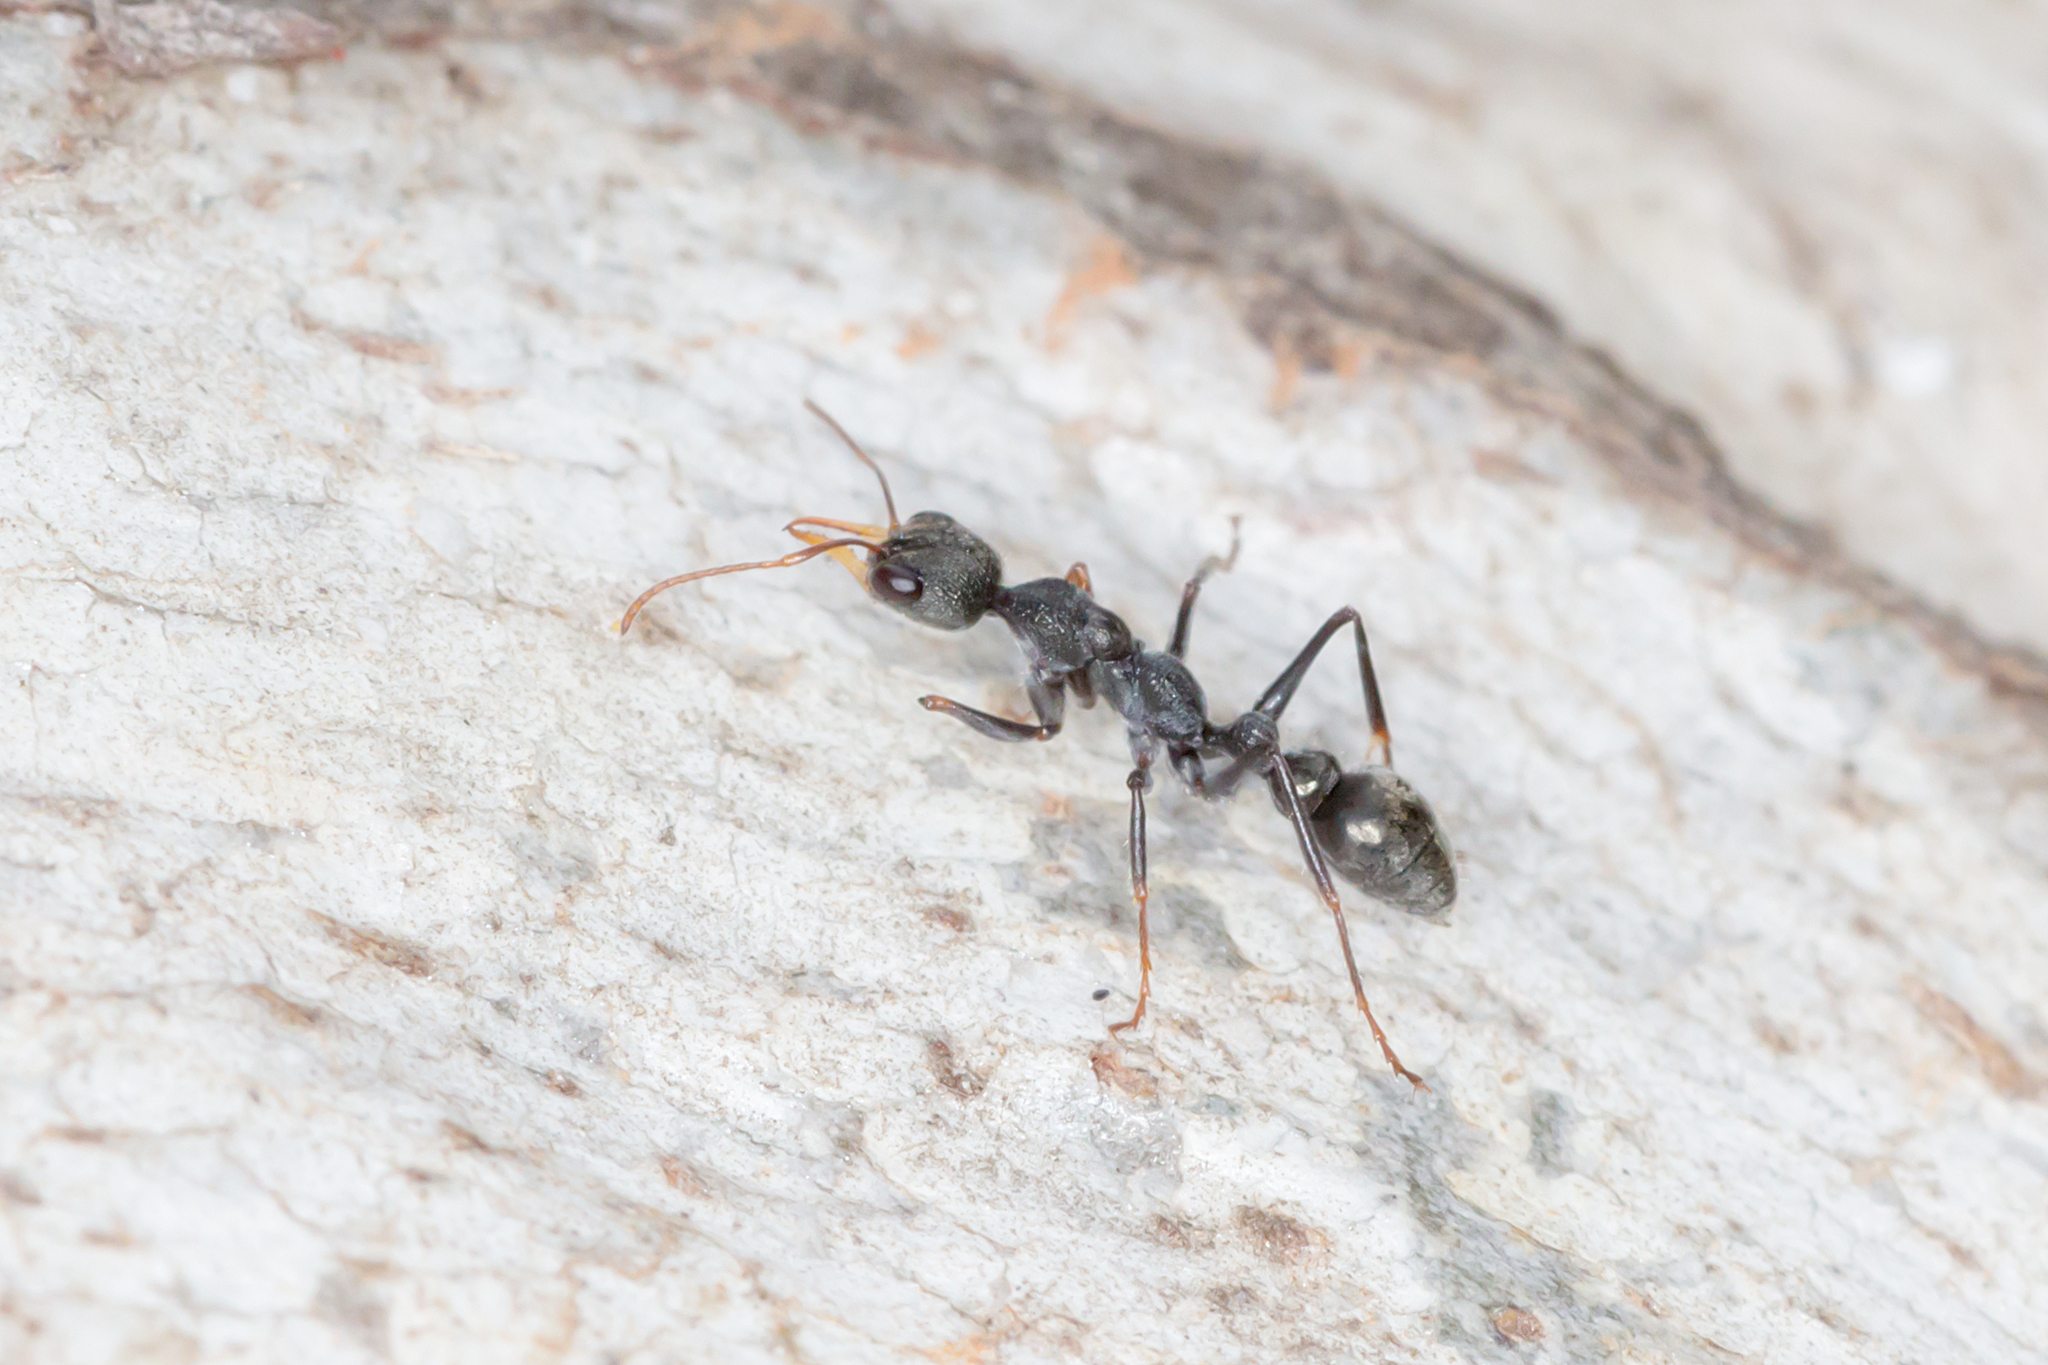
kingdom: Animalia
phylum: Arthropoda
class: Insecta
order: Hymenoptera
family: Formicidae
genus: Myrmecia
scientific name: Myrmecia urens
